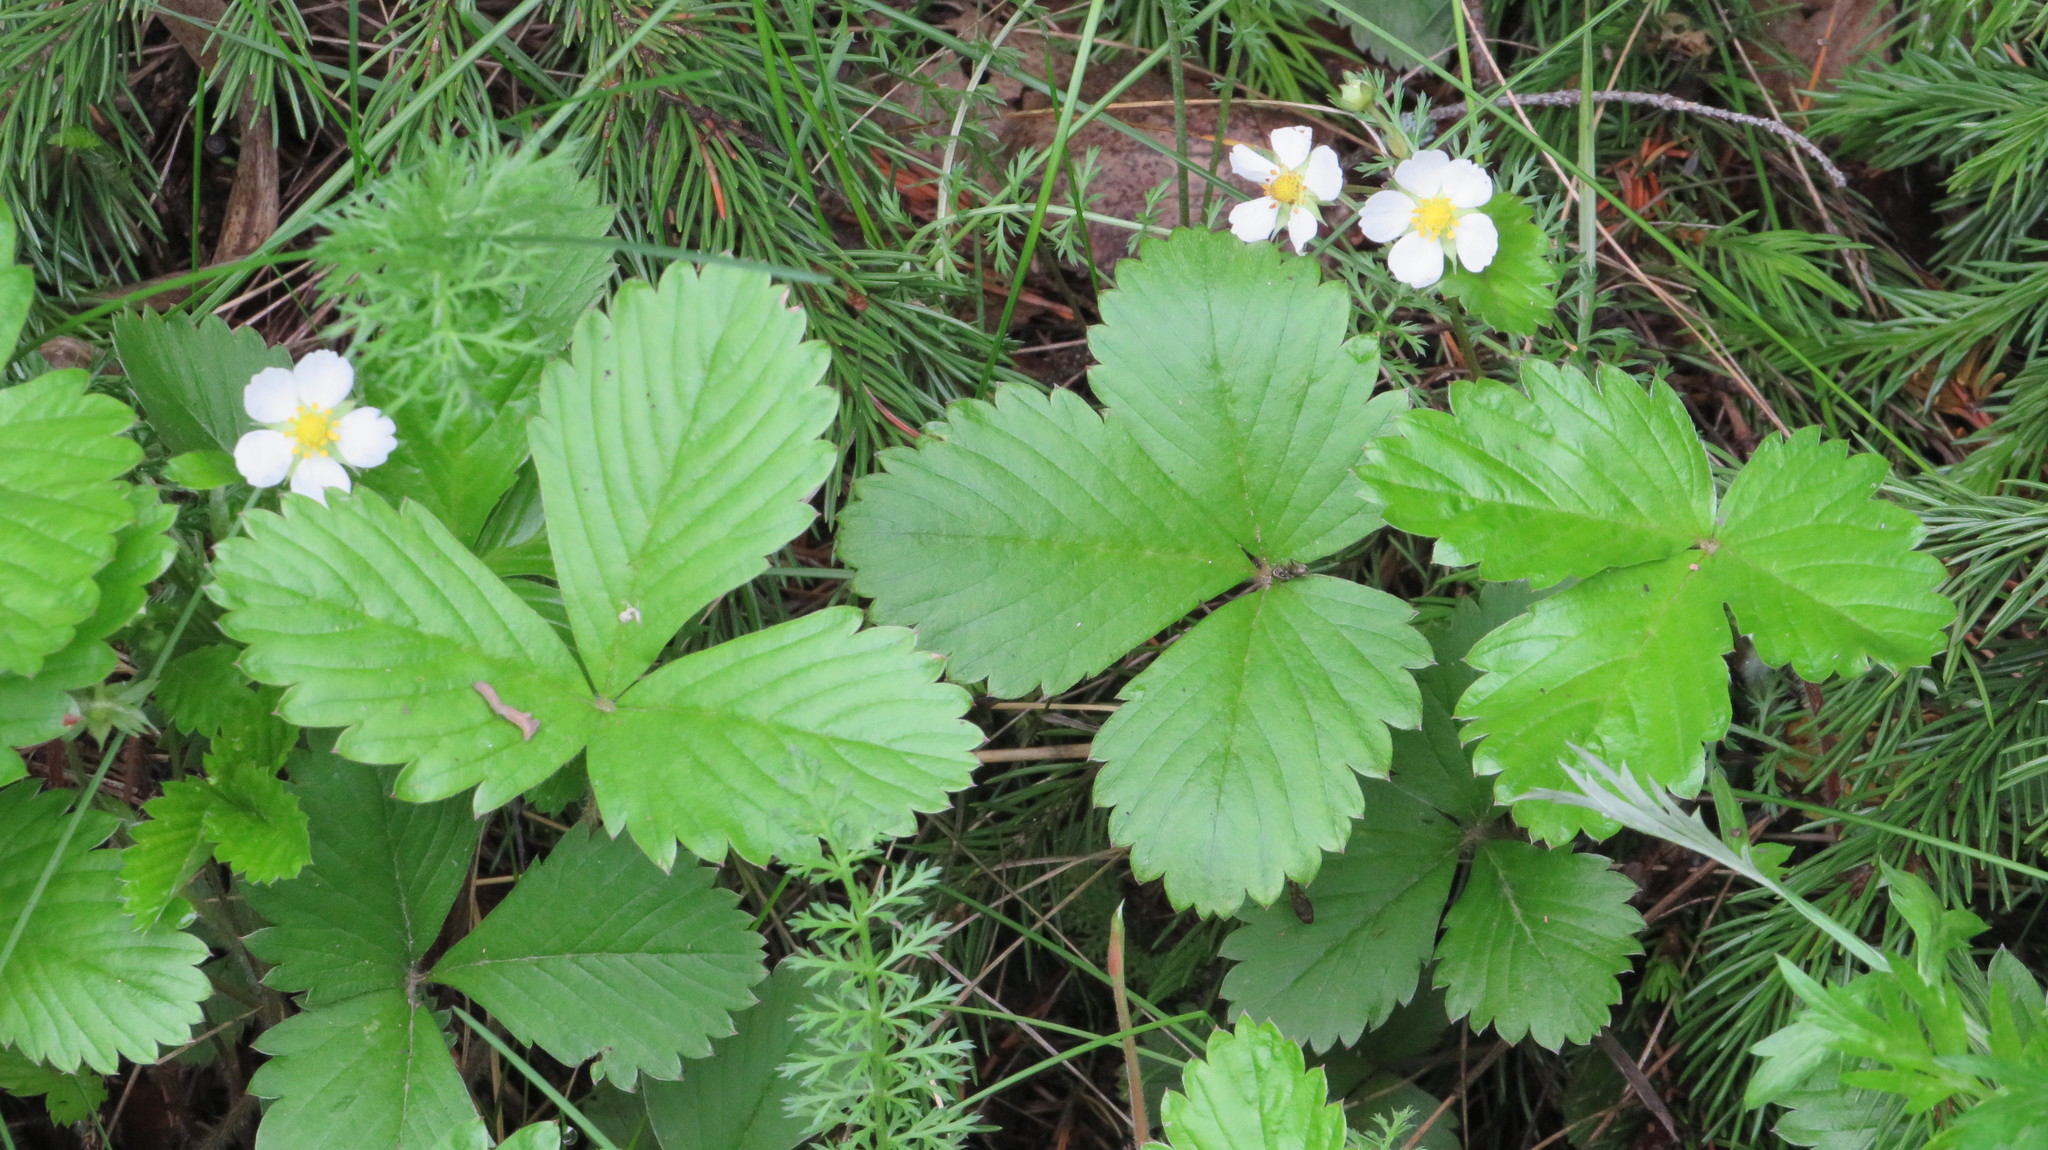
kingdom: Plantae
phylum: Tracheophyta
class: Magnoliopsida
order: Rosales
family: Rosaceae
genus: Fragaria
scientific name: Fragaria vesca
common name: Wild strawberry
